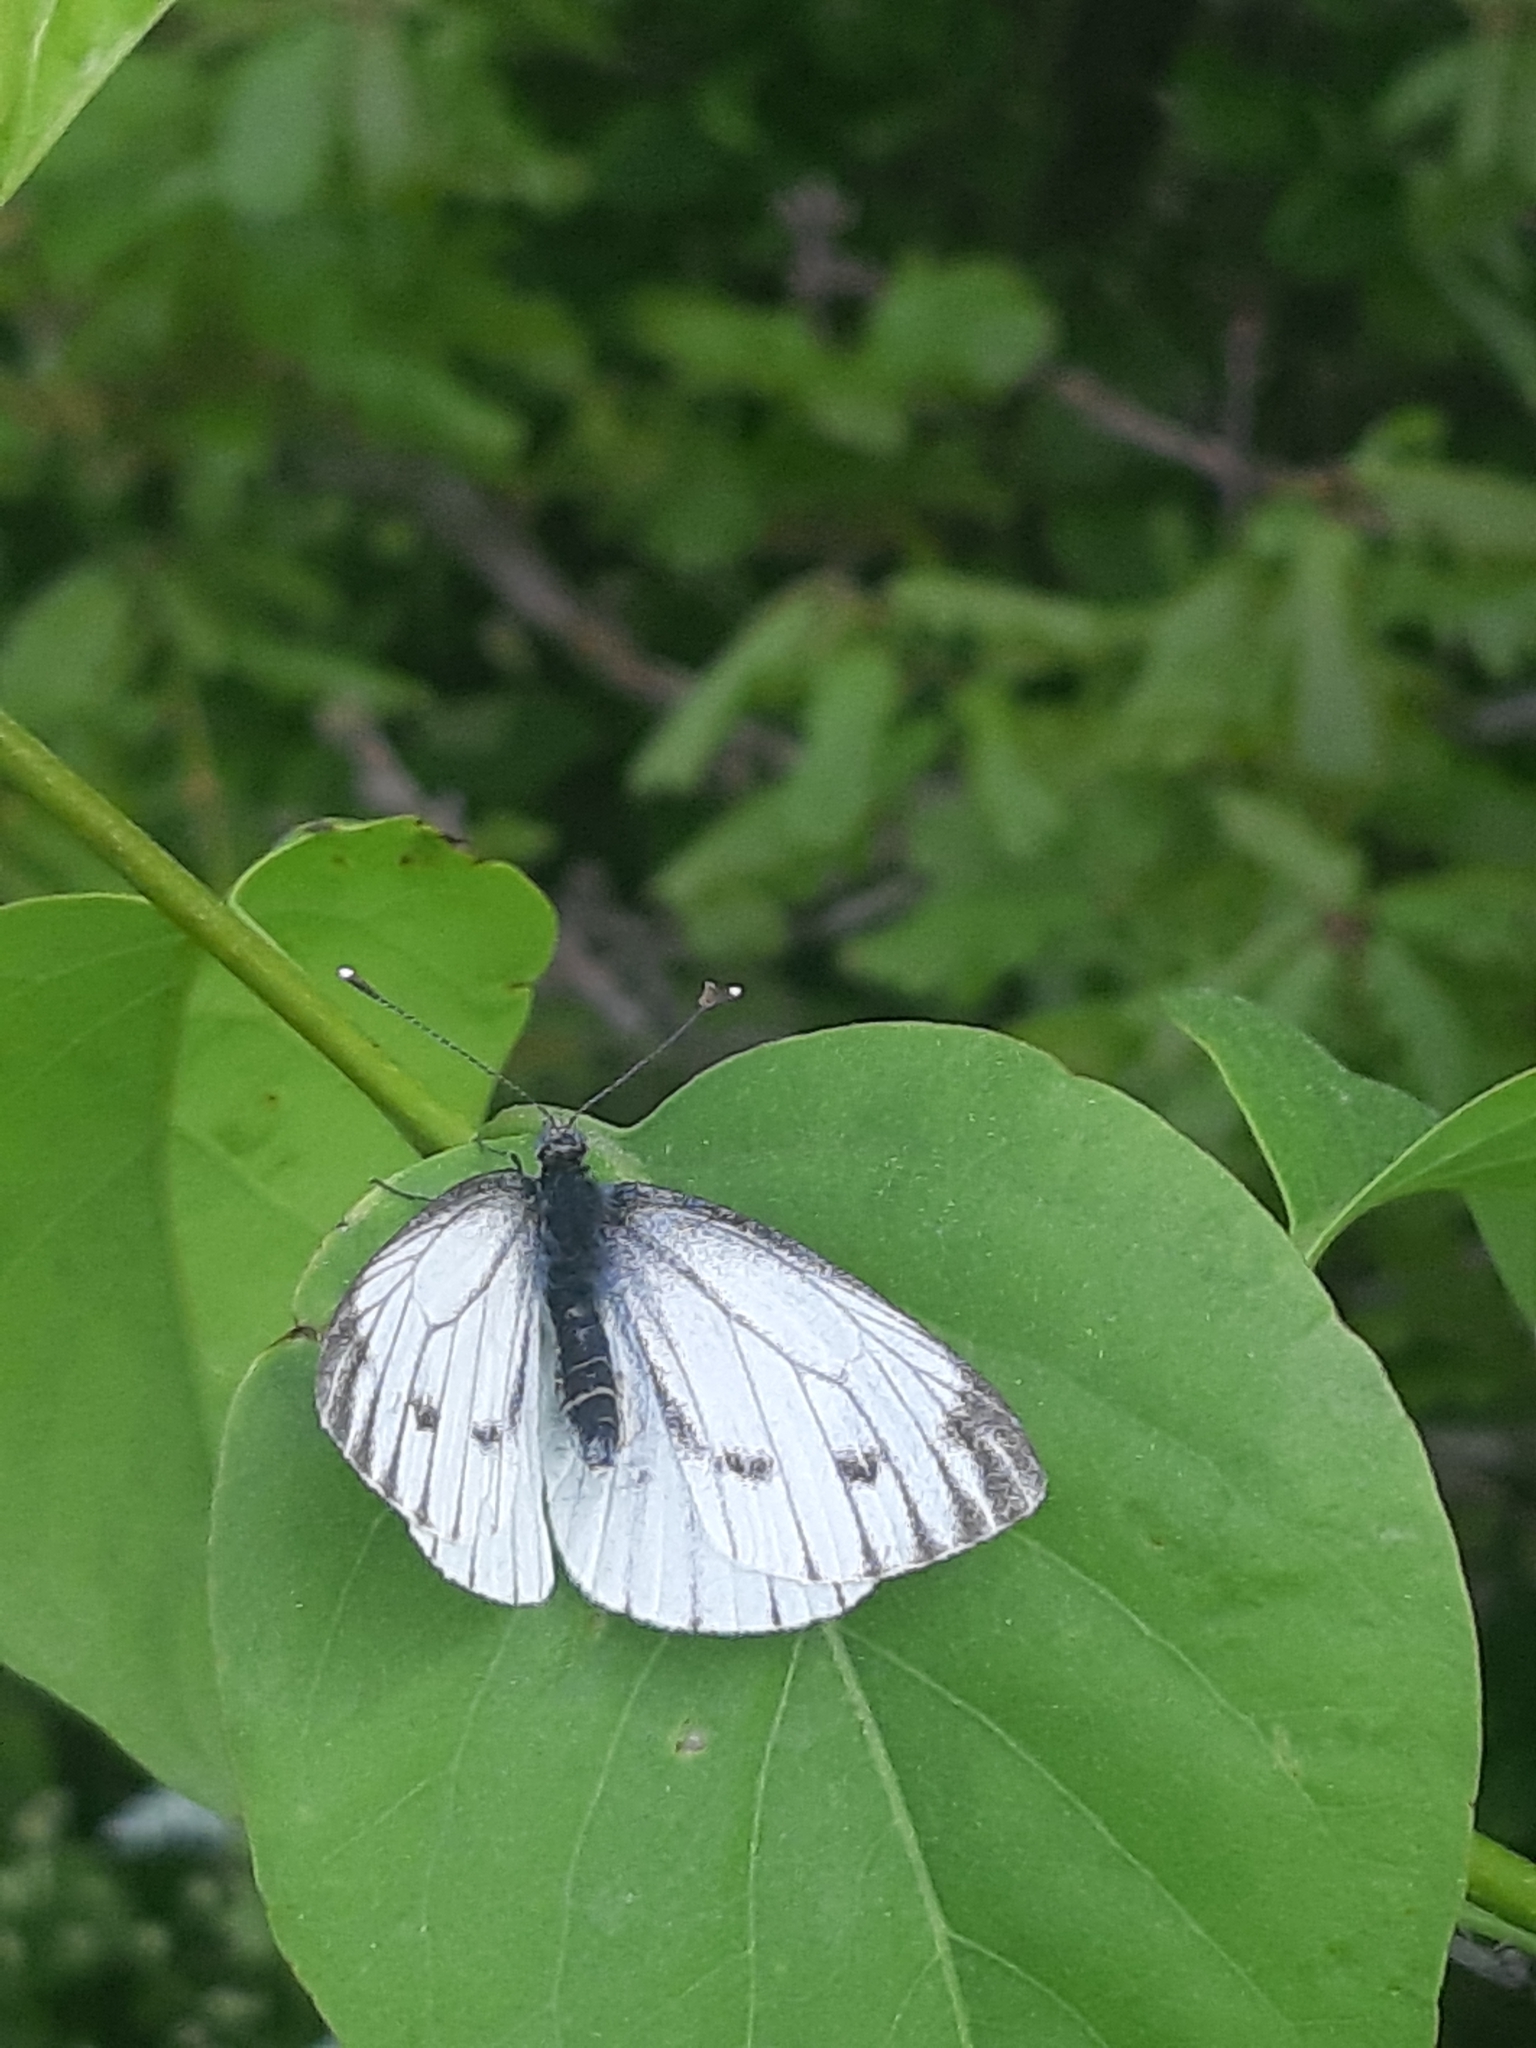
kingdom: Animalia
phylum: Arthropoda
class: Insecta
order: Lepidoptera
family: Pieridae
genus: Pieris
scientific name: Pieris napi
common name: Green-veined white
